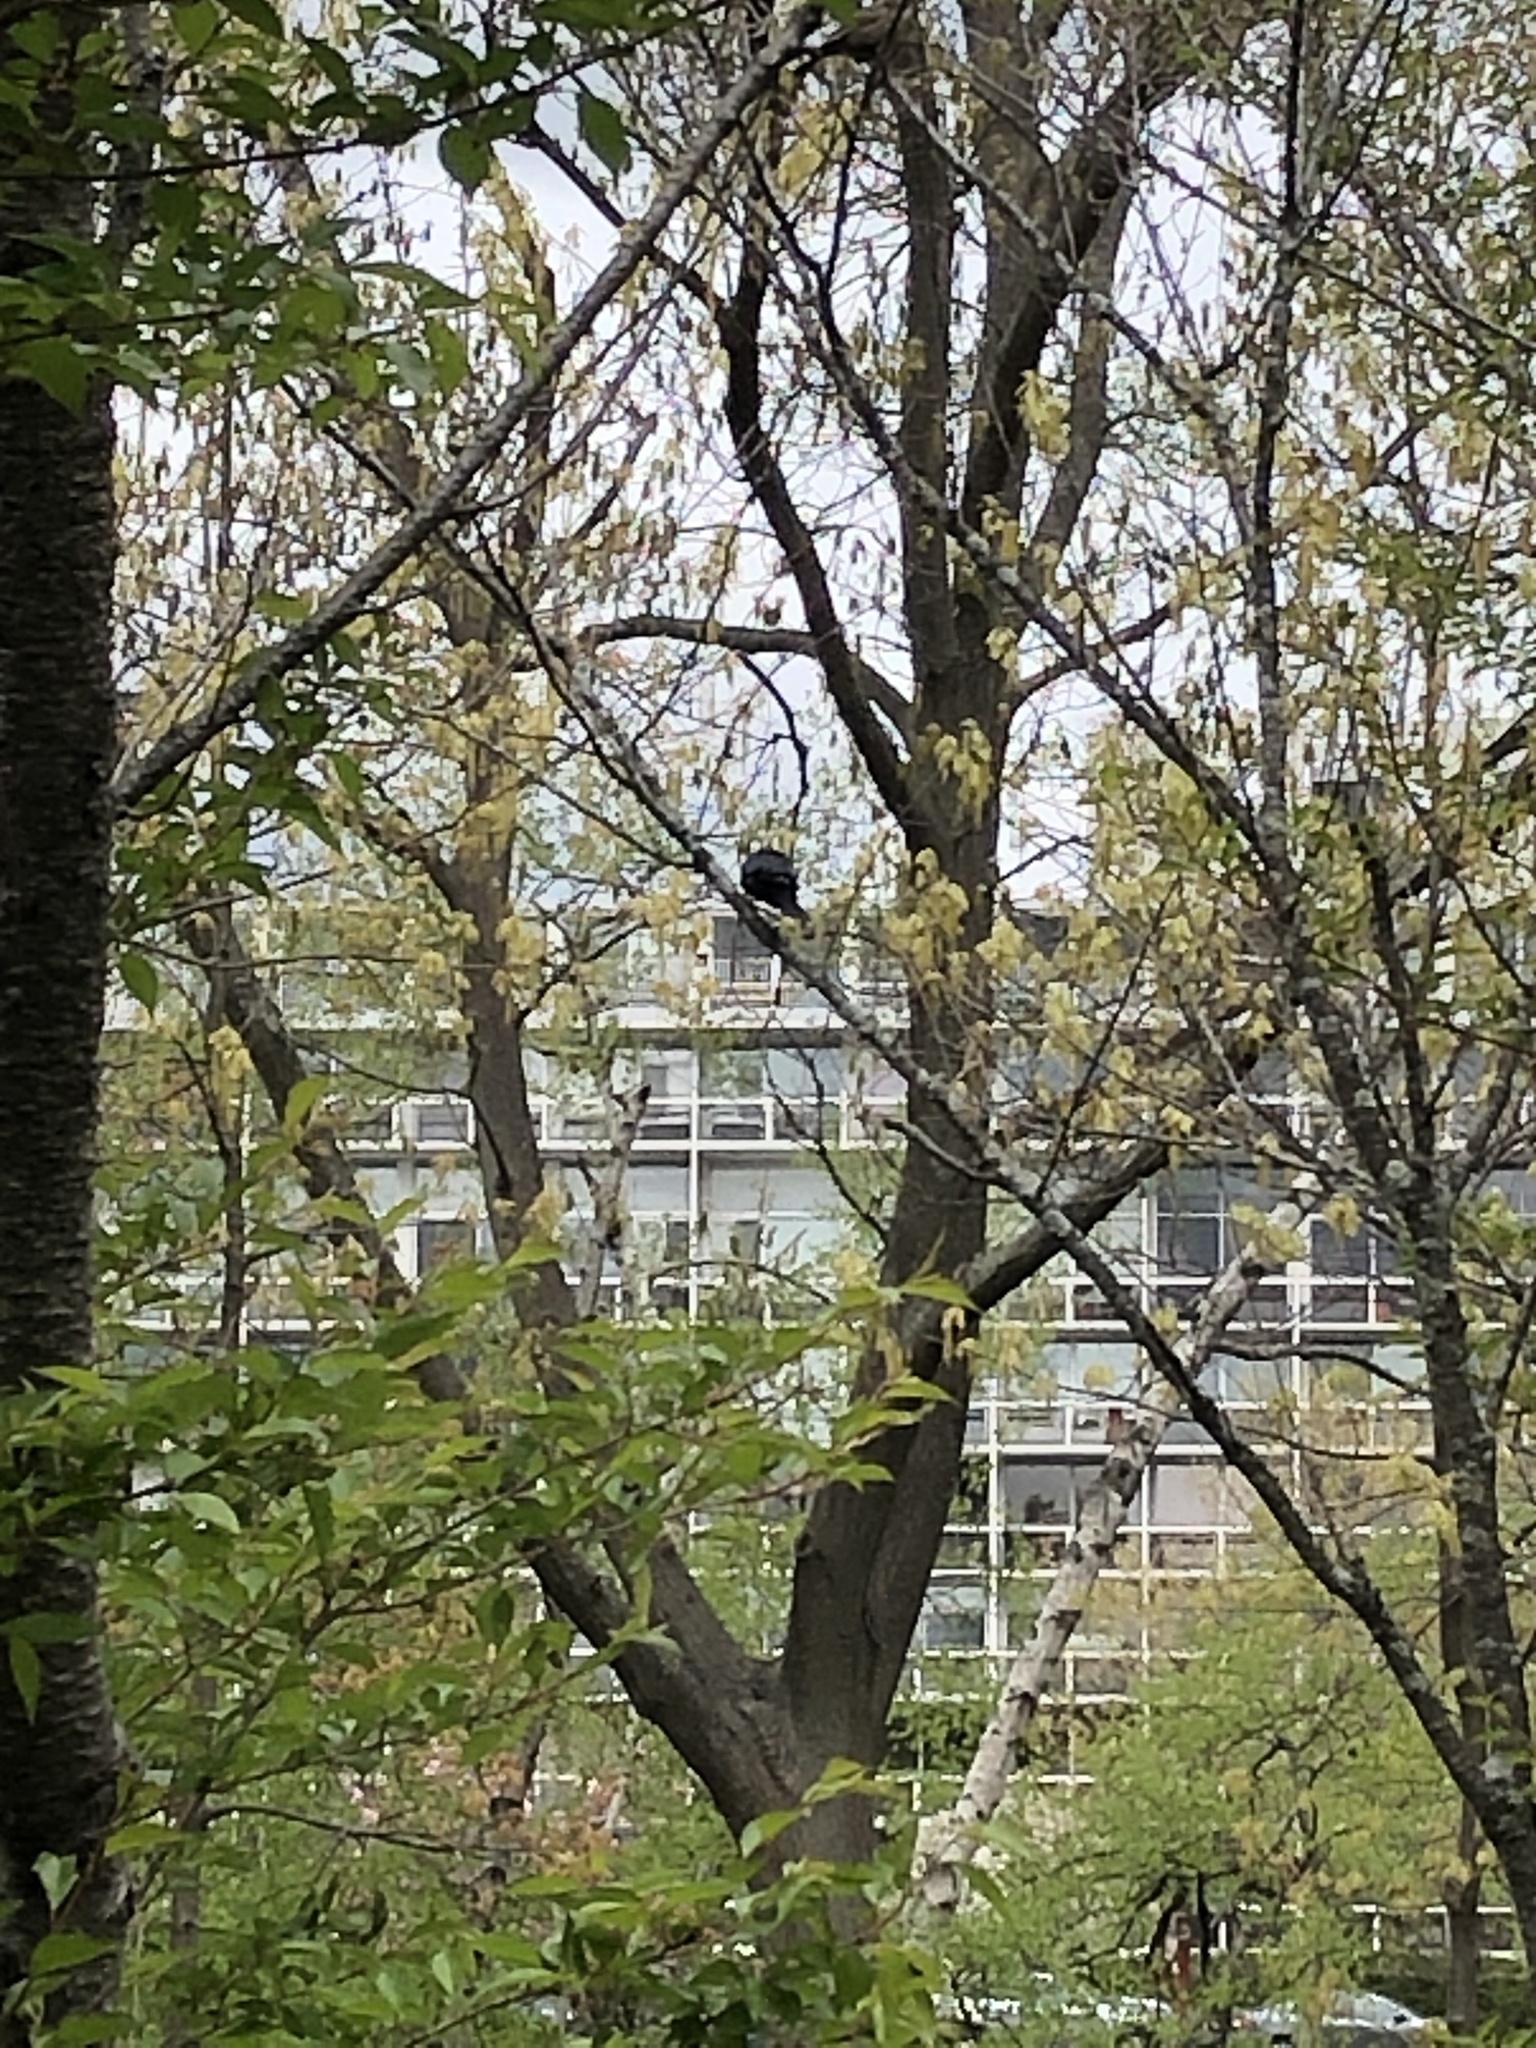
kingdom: Animalia
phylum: Chordata
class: Aves
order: Passeriformes
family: Icteridae
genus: Molothrus
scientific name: Molothrus ater
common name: Brown-headed cowbird
